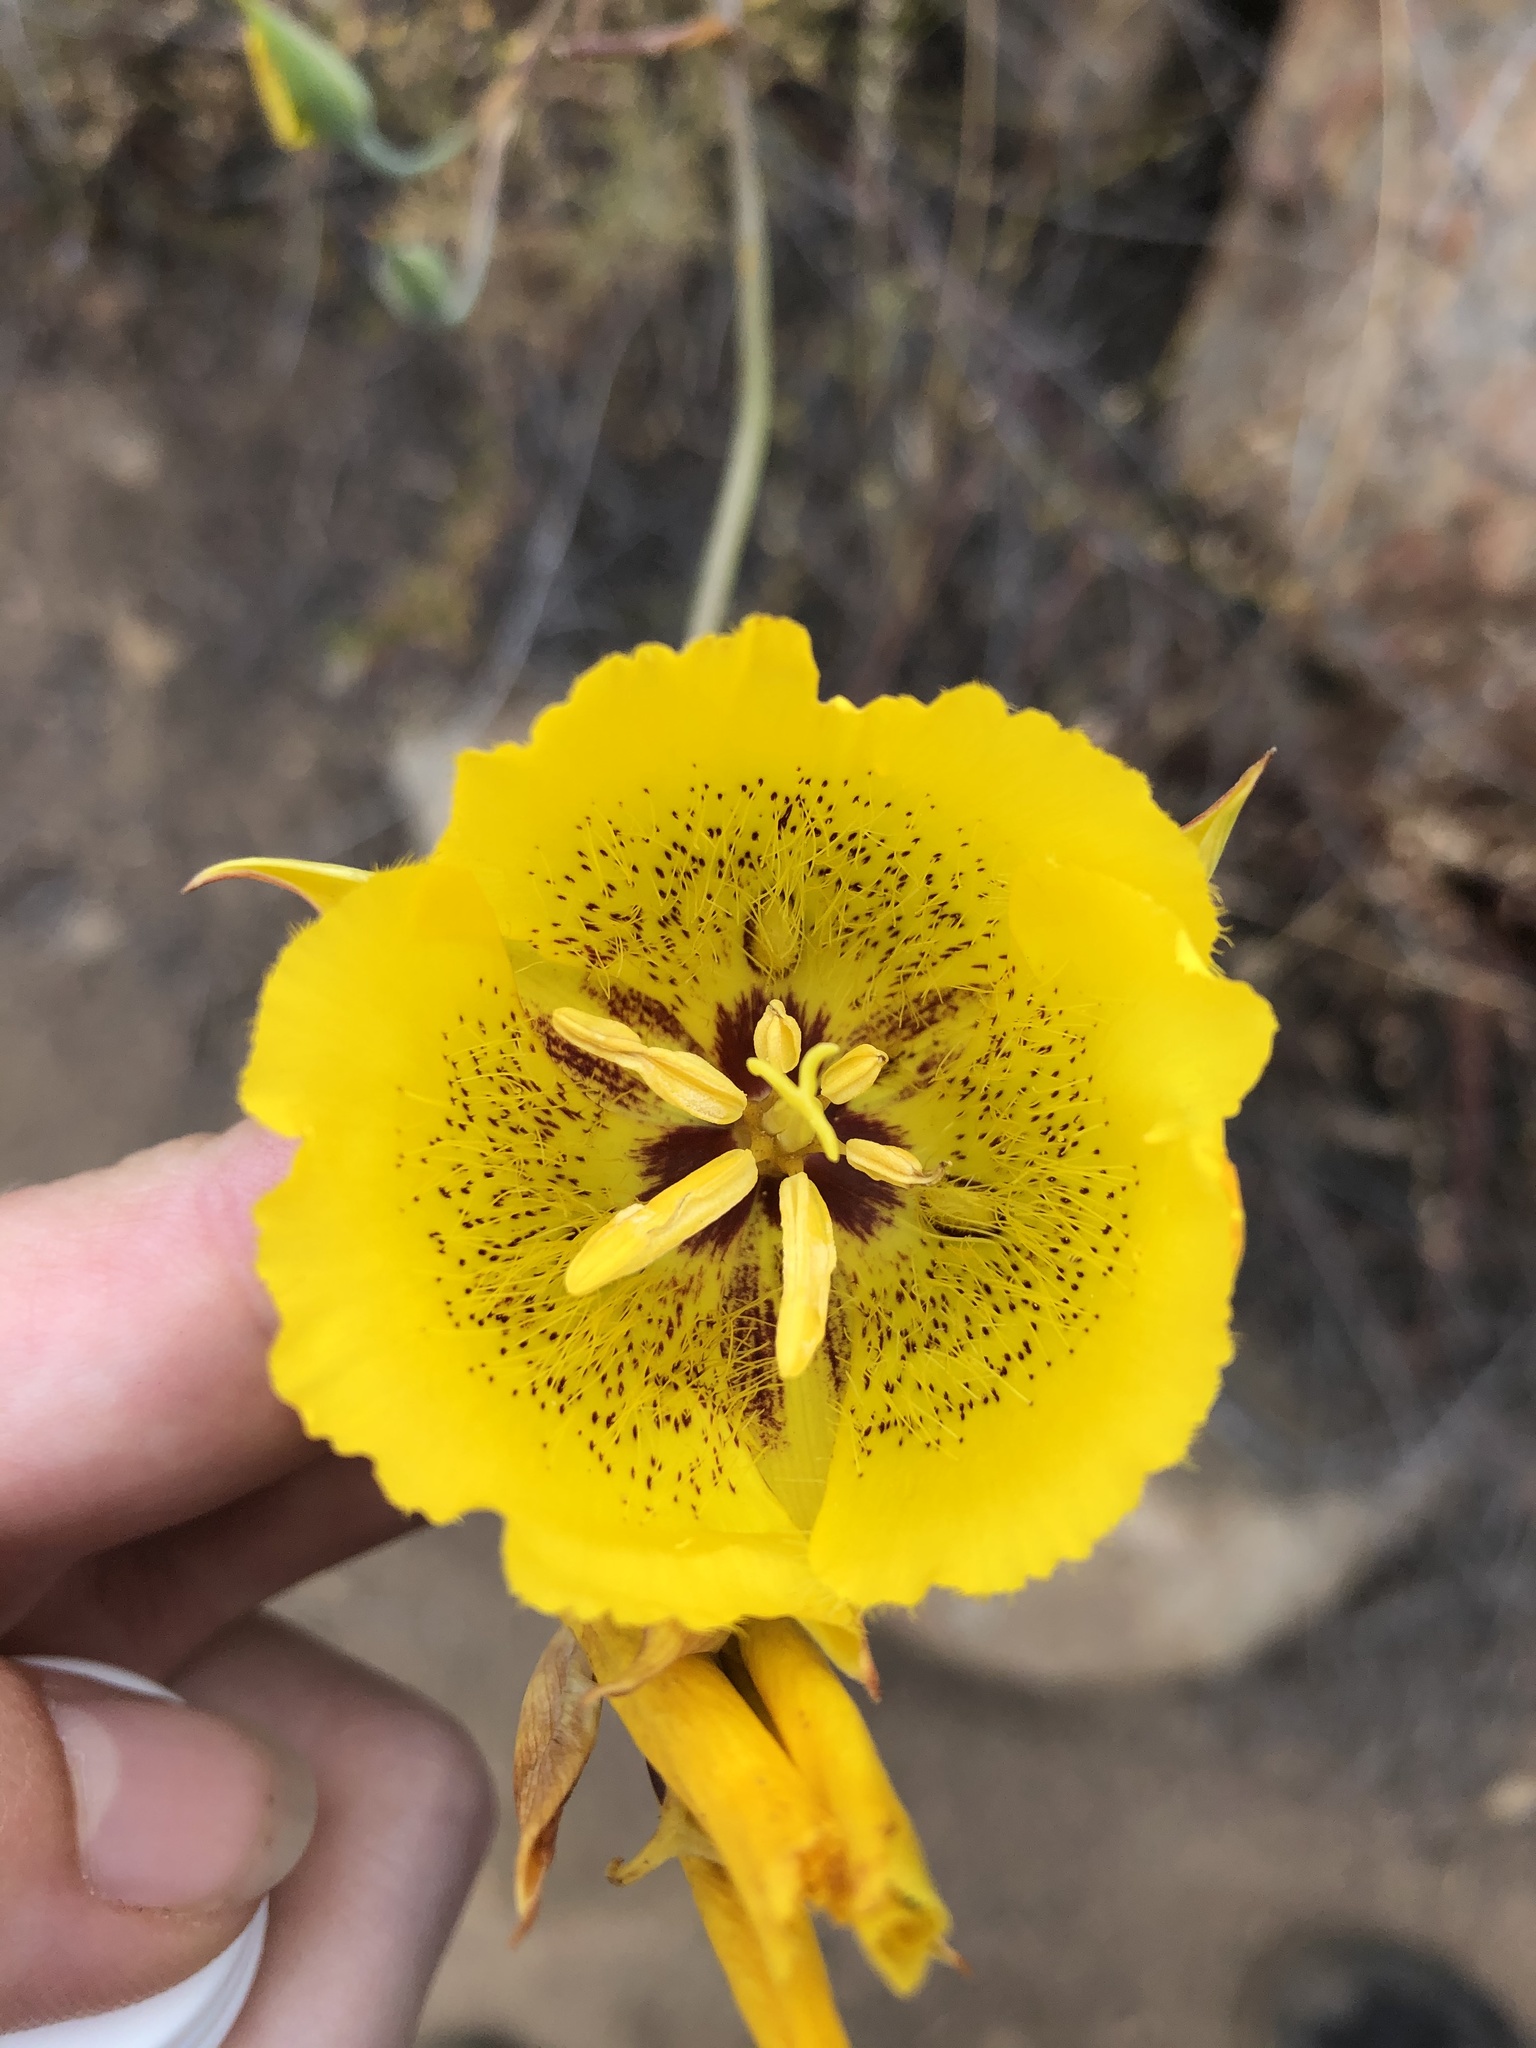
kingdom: Plantae
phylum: Tracheophyta
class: Liliopsida
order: Liliales
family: Liliaceae
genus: Calochortus
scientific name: Calochortus weedii
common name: Weed's mariposa-lily
